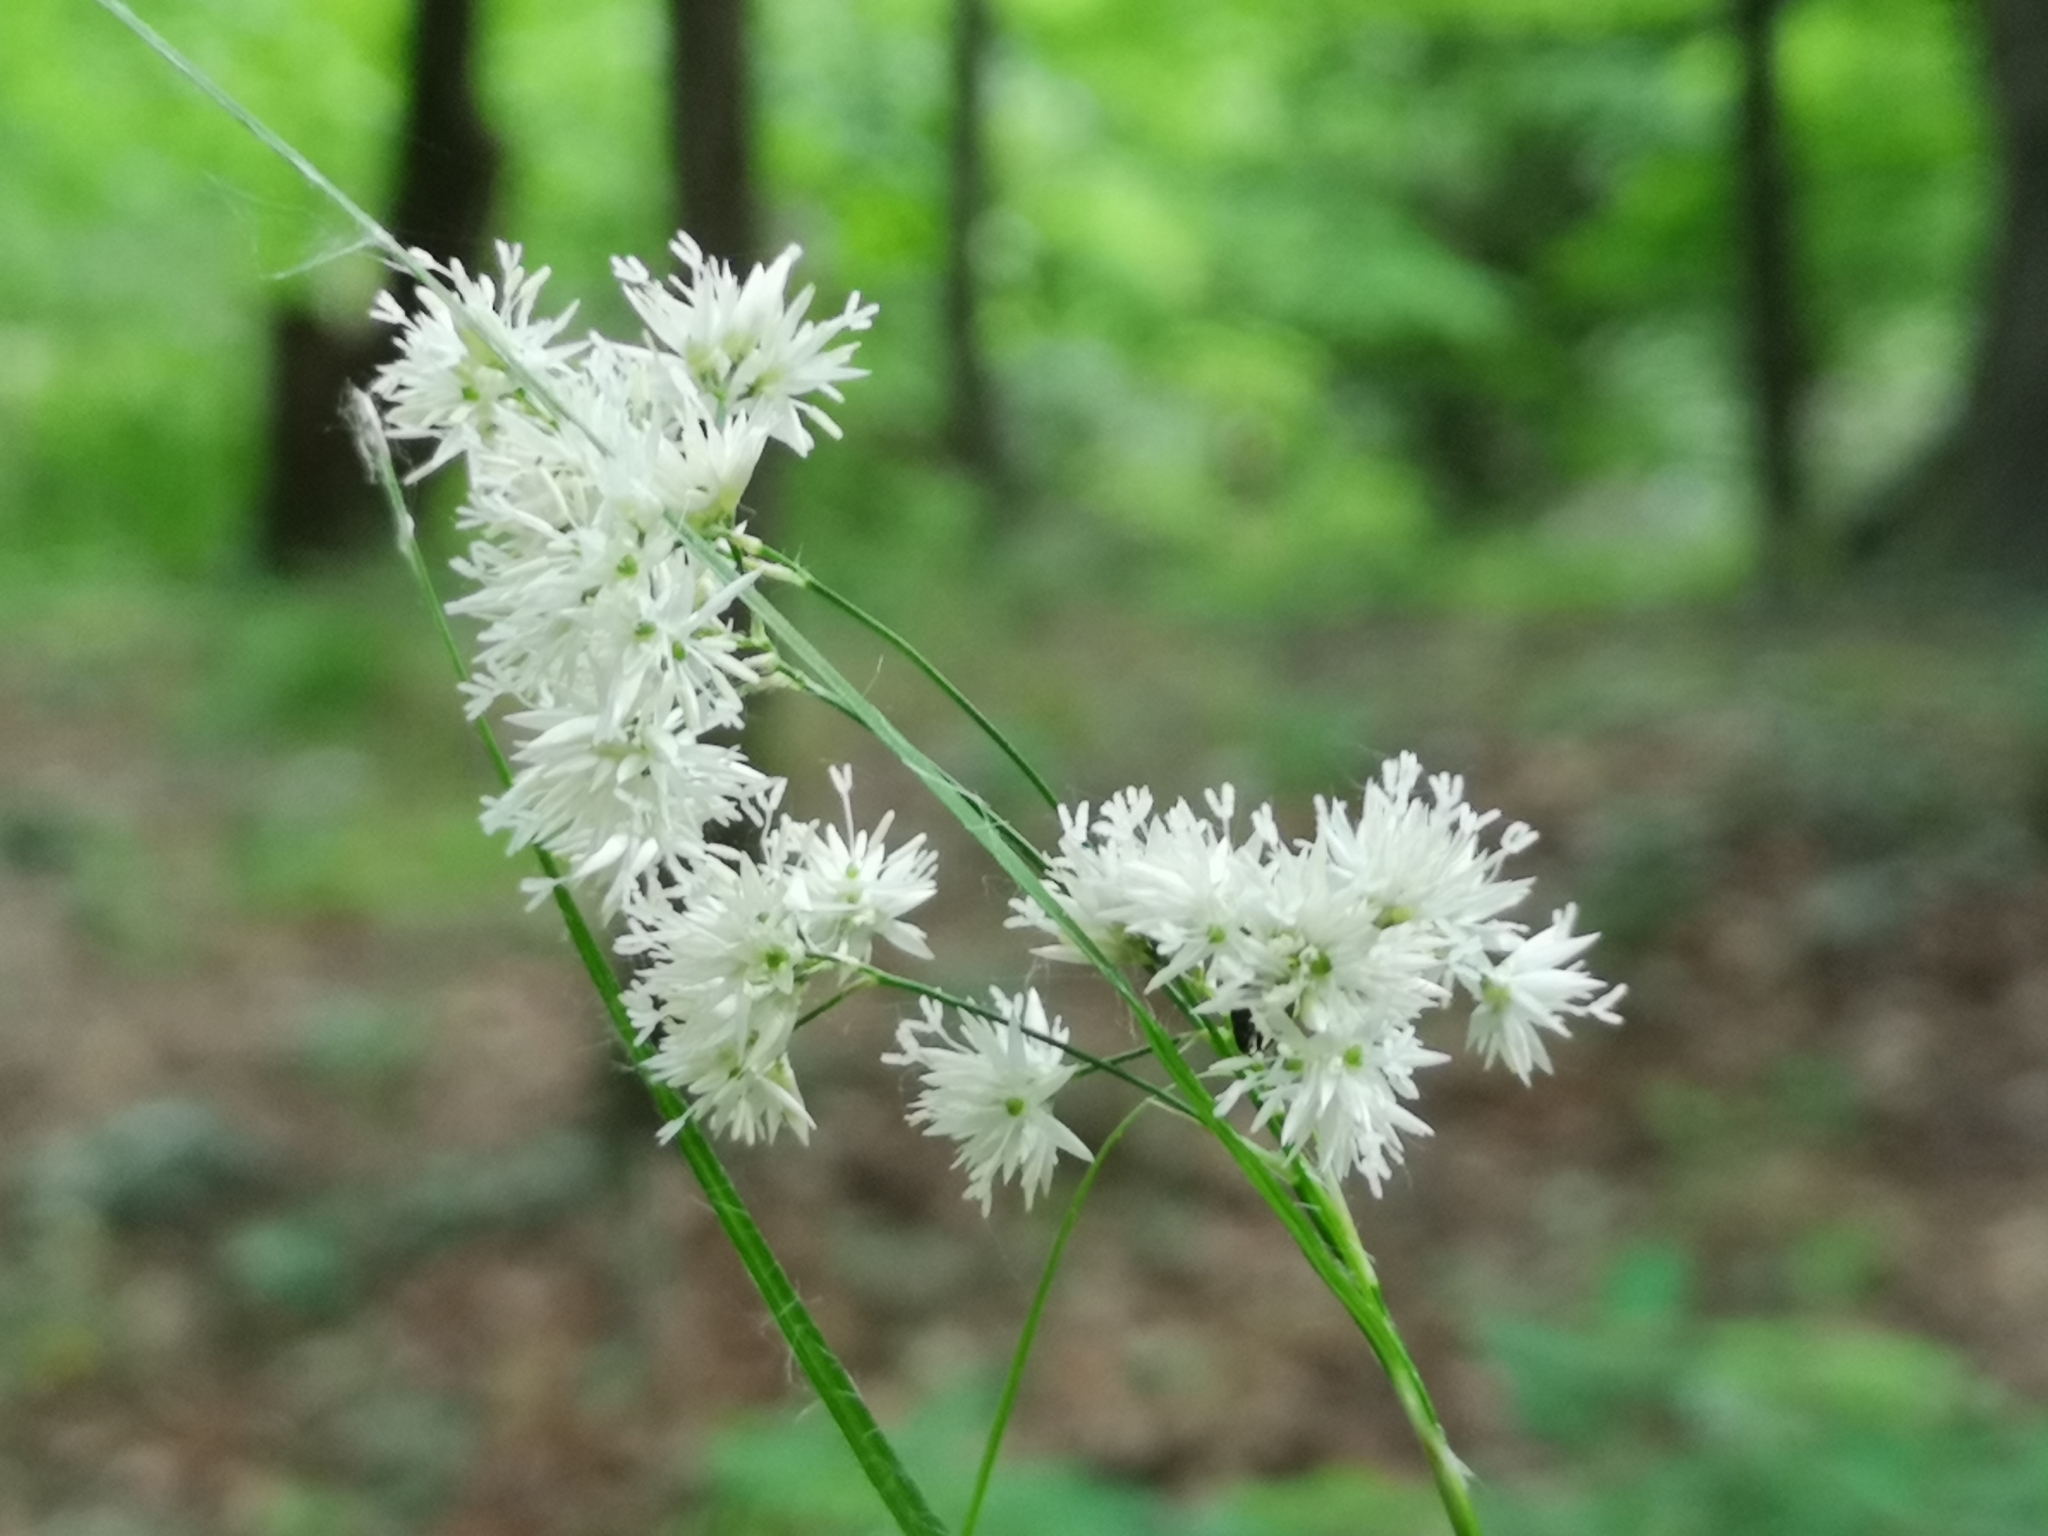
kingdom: Plantae
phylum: Tracheophyta
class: Liliopsida
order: Poales
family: Juncaceae
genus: Luzula
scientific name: Luzula nivea
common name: Snow-white wood-rush
